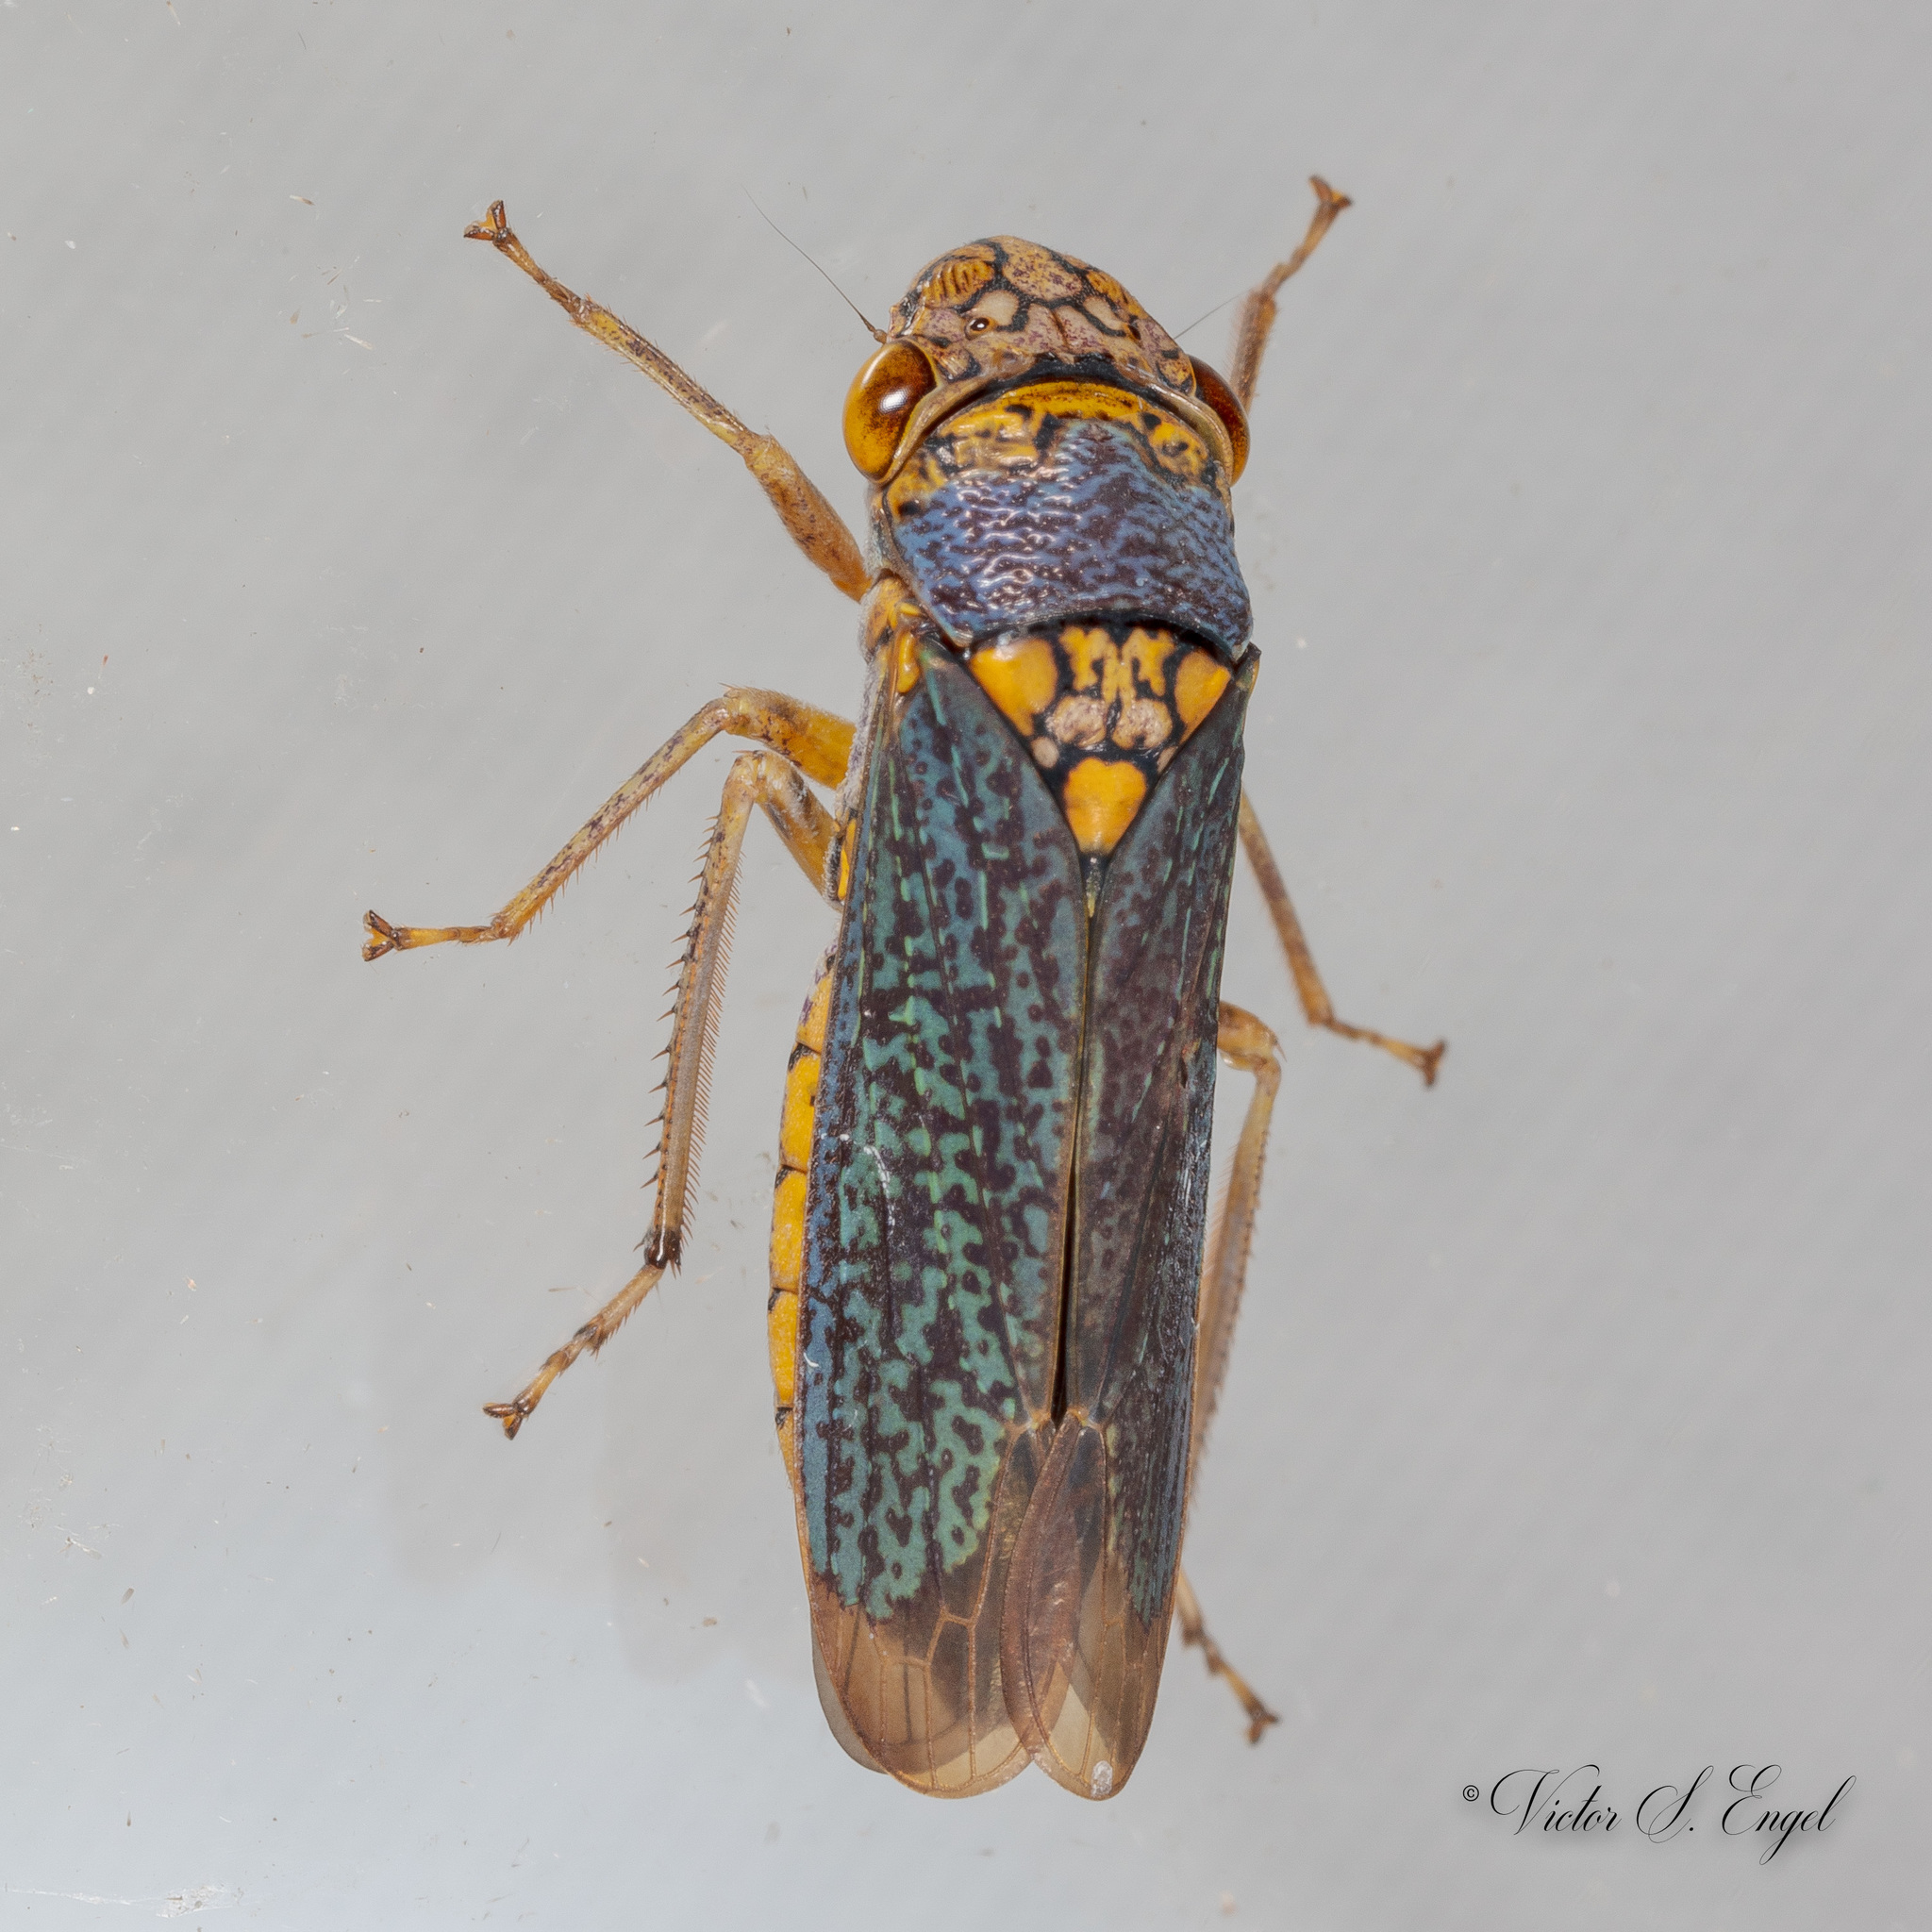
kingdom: Animalia
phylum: Arthropoda
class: Insecta
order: Hemiptera
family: Cicadellidae
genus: Oncometopia
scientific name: Oncometopia orbona
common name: Broad-headed sharpshooter
